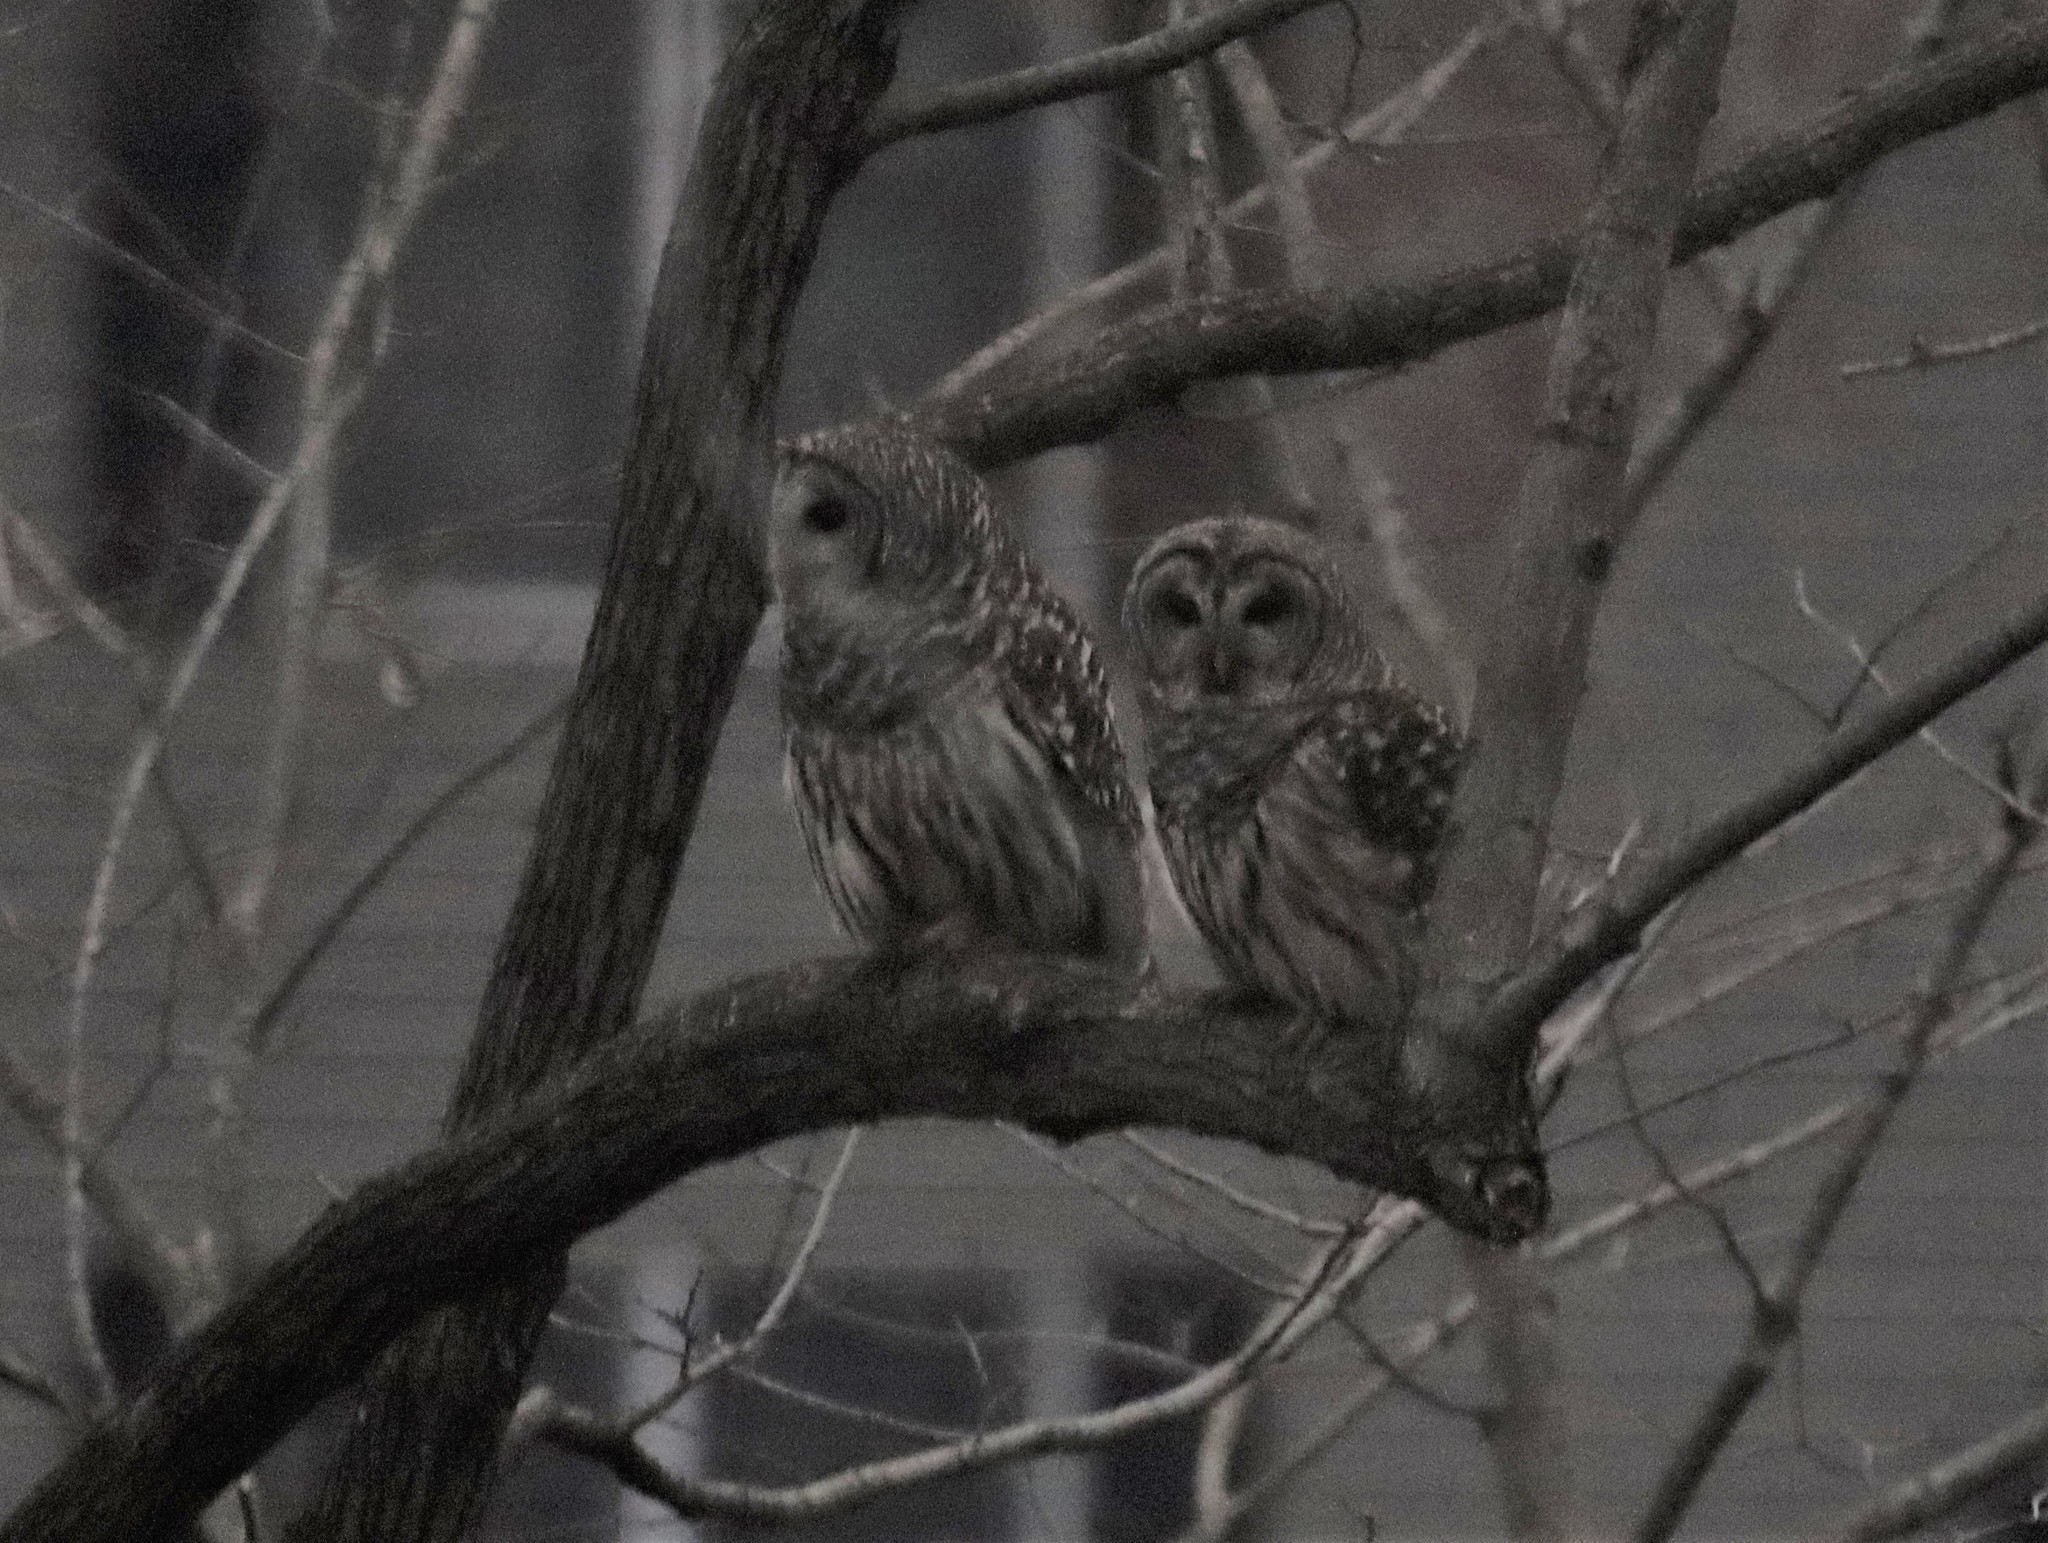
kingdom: Animalia
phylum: Chordata
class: Aves
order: Strigiformes
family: Strigidae
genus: Strix
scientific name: Strix varia
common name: Barred owl
